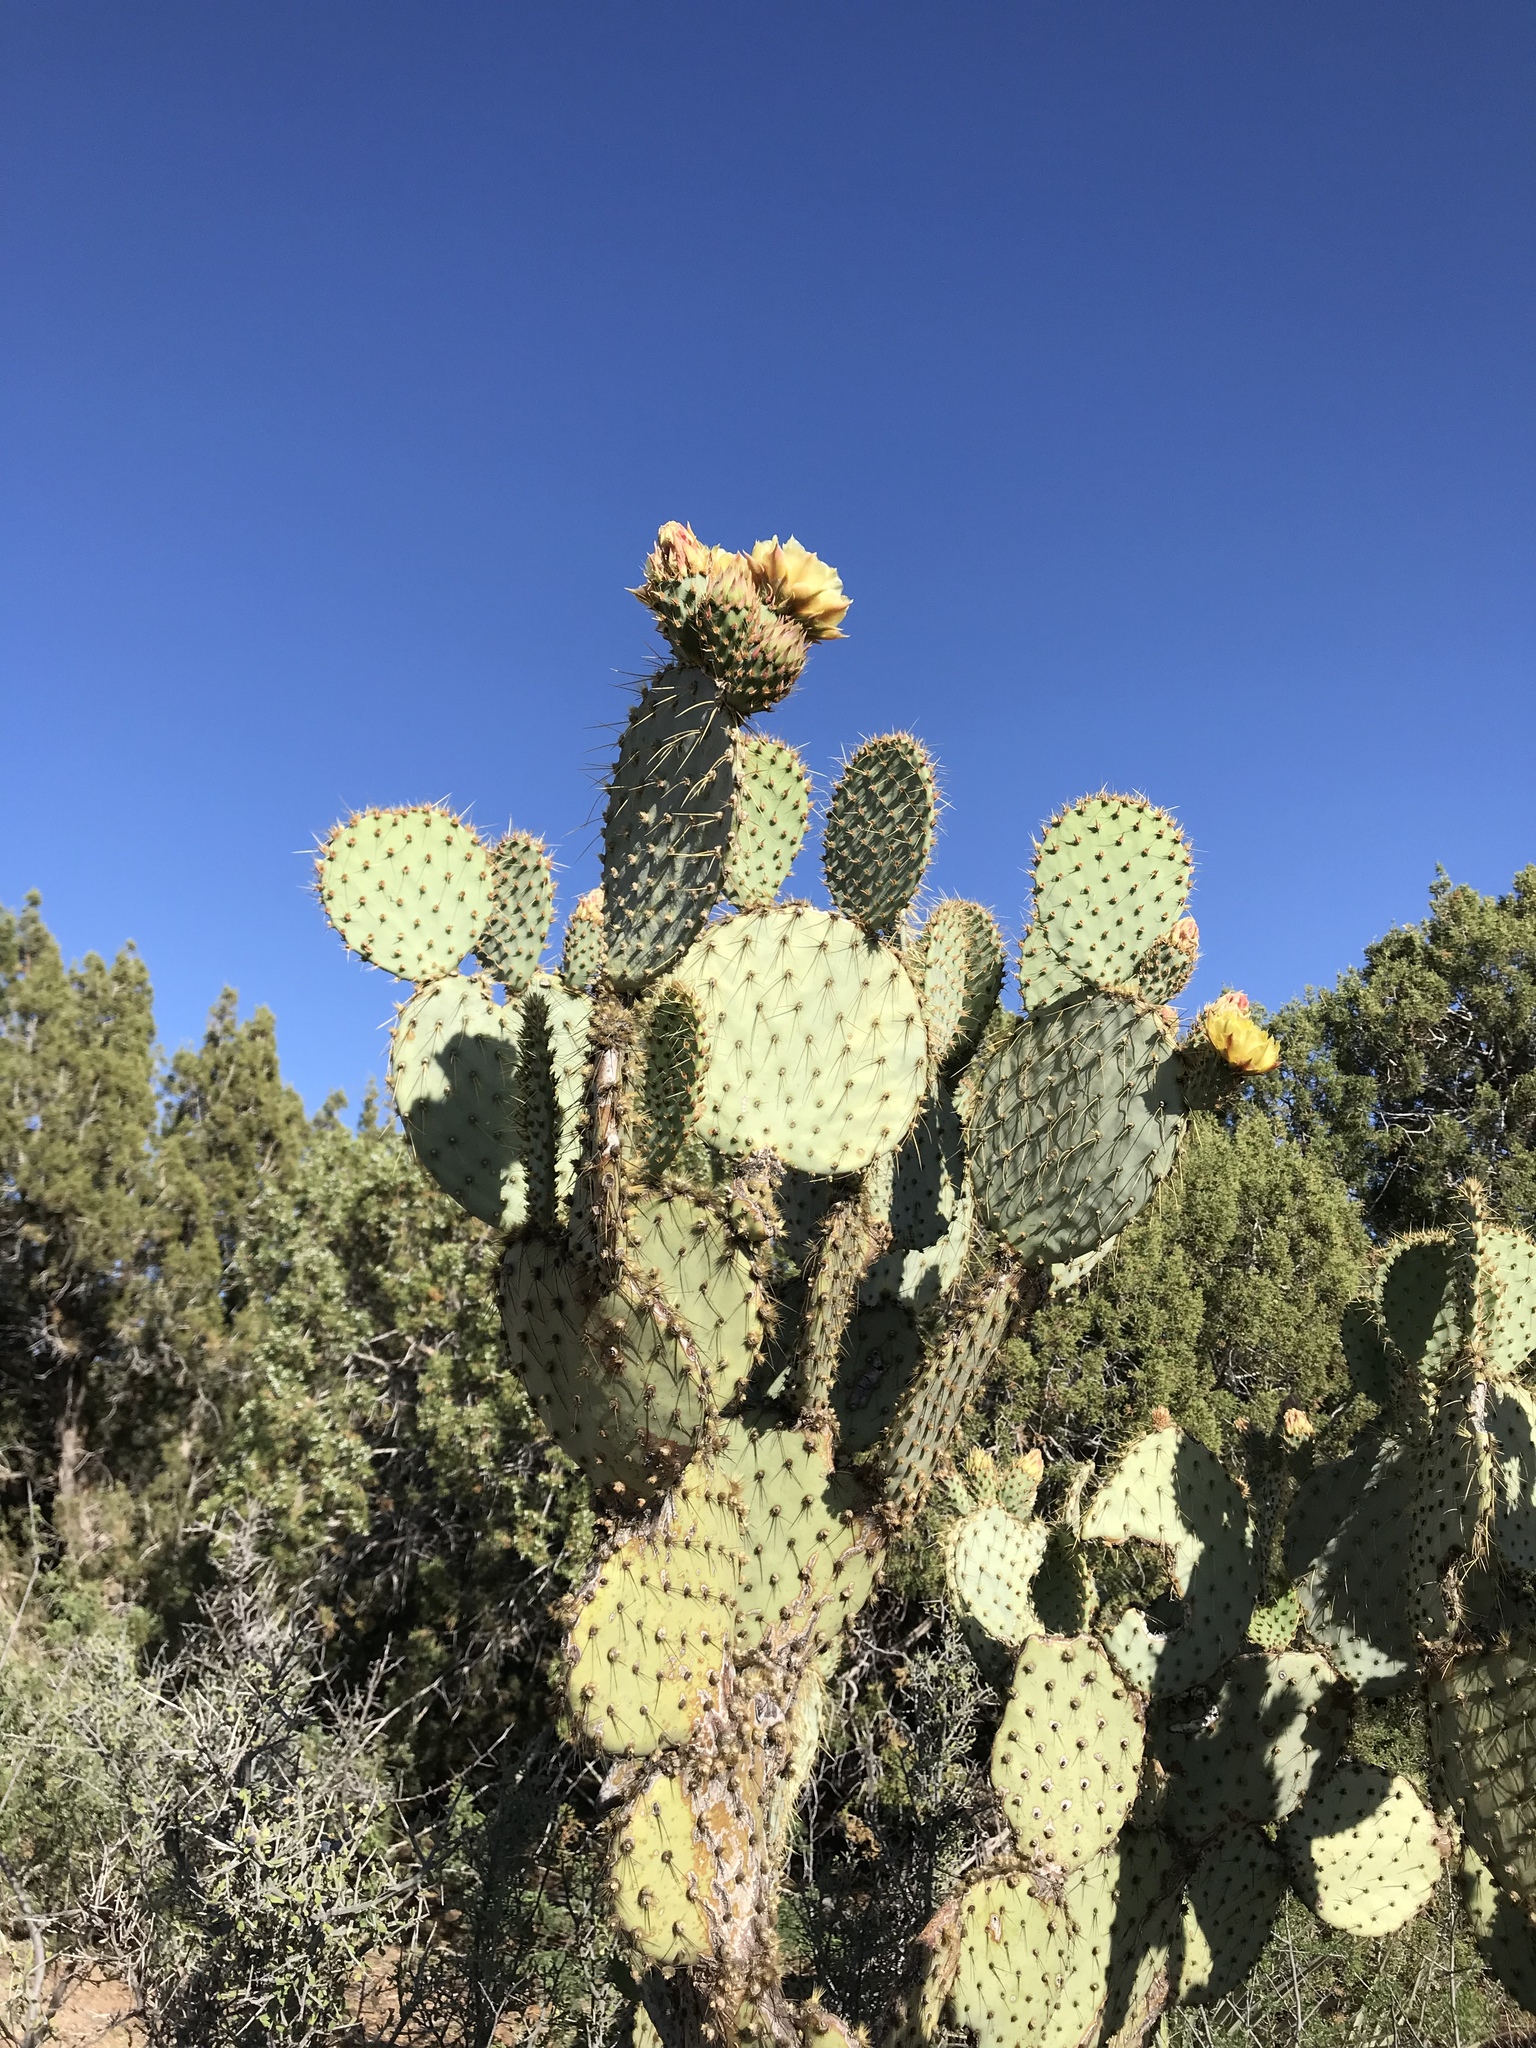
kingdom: Plantae
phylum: Tracheophyta
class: Magnoliopsida
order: Caryophyllales
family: Cactaceae
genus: Opuntia
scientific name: Opuntia chlorotica
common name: Dollar-joint prickly-pear
